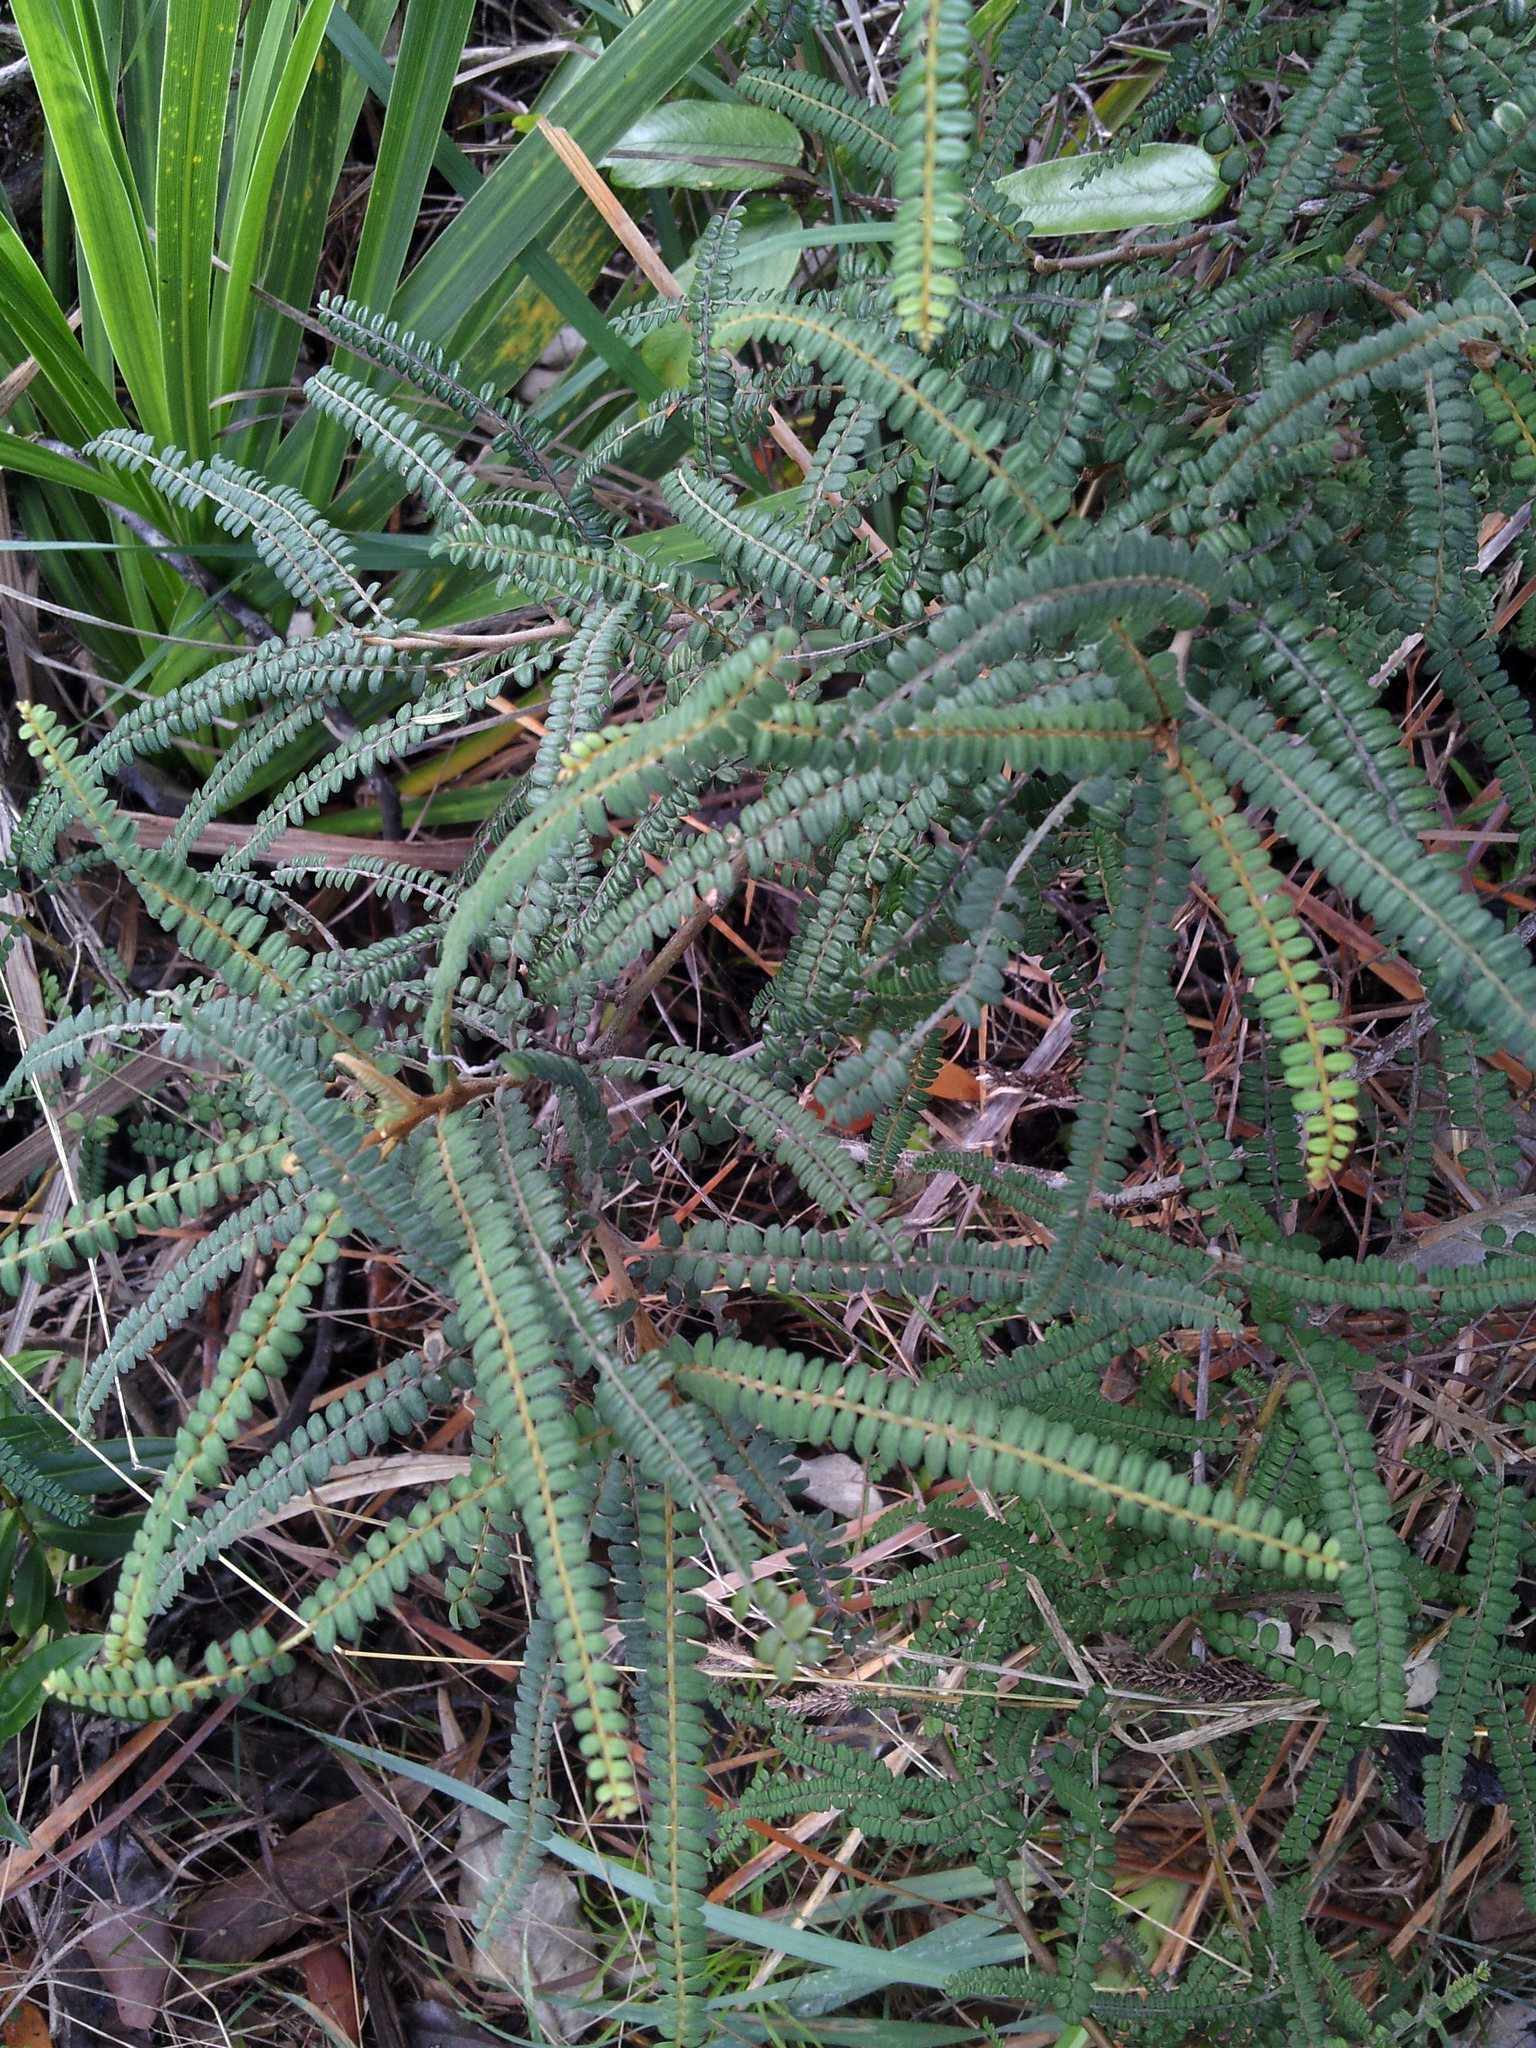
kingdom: Plantae
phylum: Tracheophyta
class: Magnoliopsida
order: Fabales
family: Fabaceae
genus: Sophora
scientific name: Sophora fulvida
